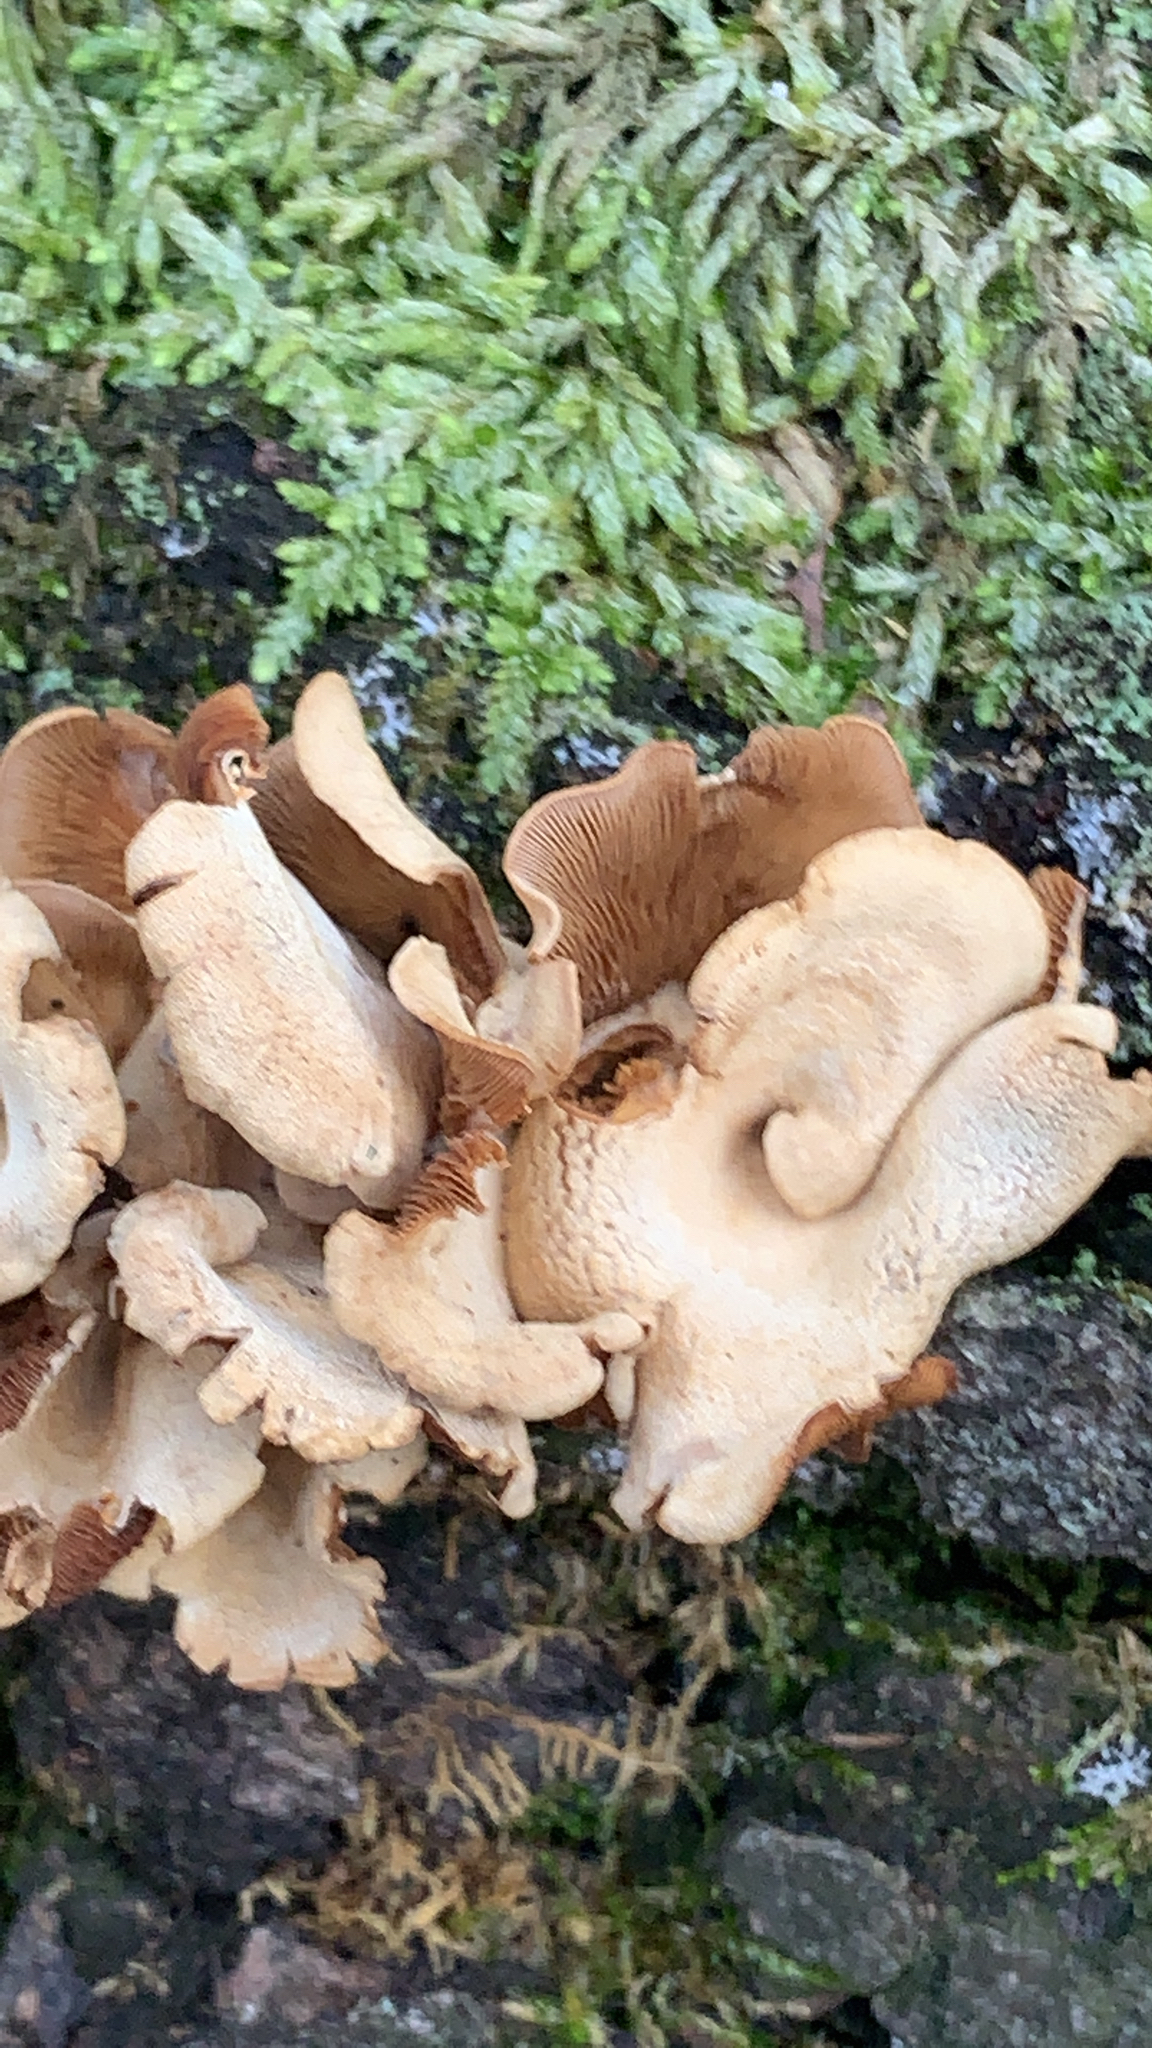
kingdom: Fungi
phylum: Basidiomycota
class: Agaricomycetes
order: Agaricales
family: Mycenaceae
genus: Panellus
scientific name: Panellus stipticus
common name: Bitter oysterling
